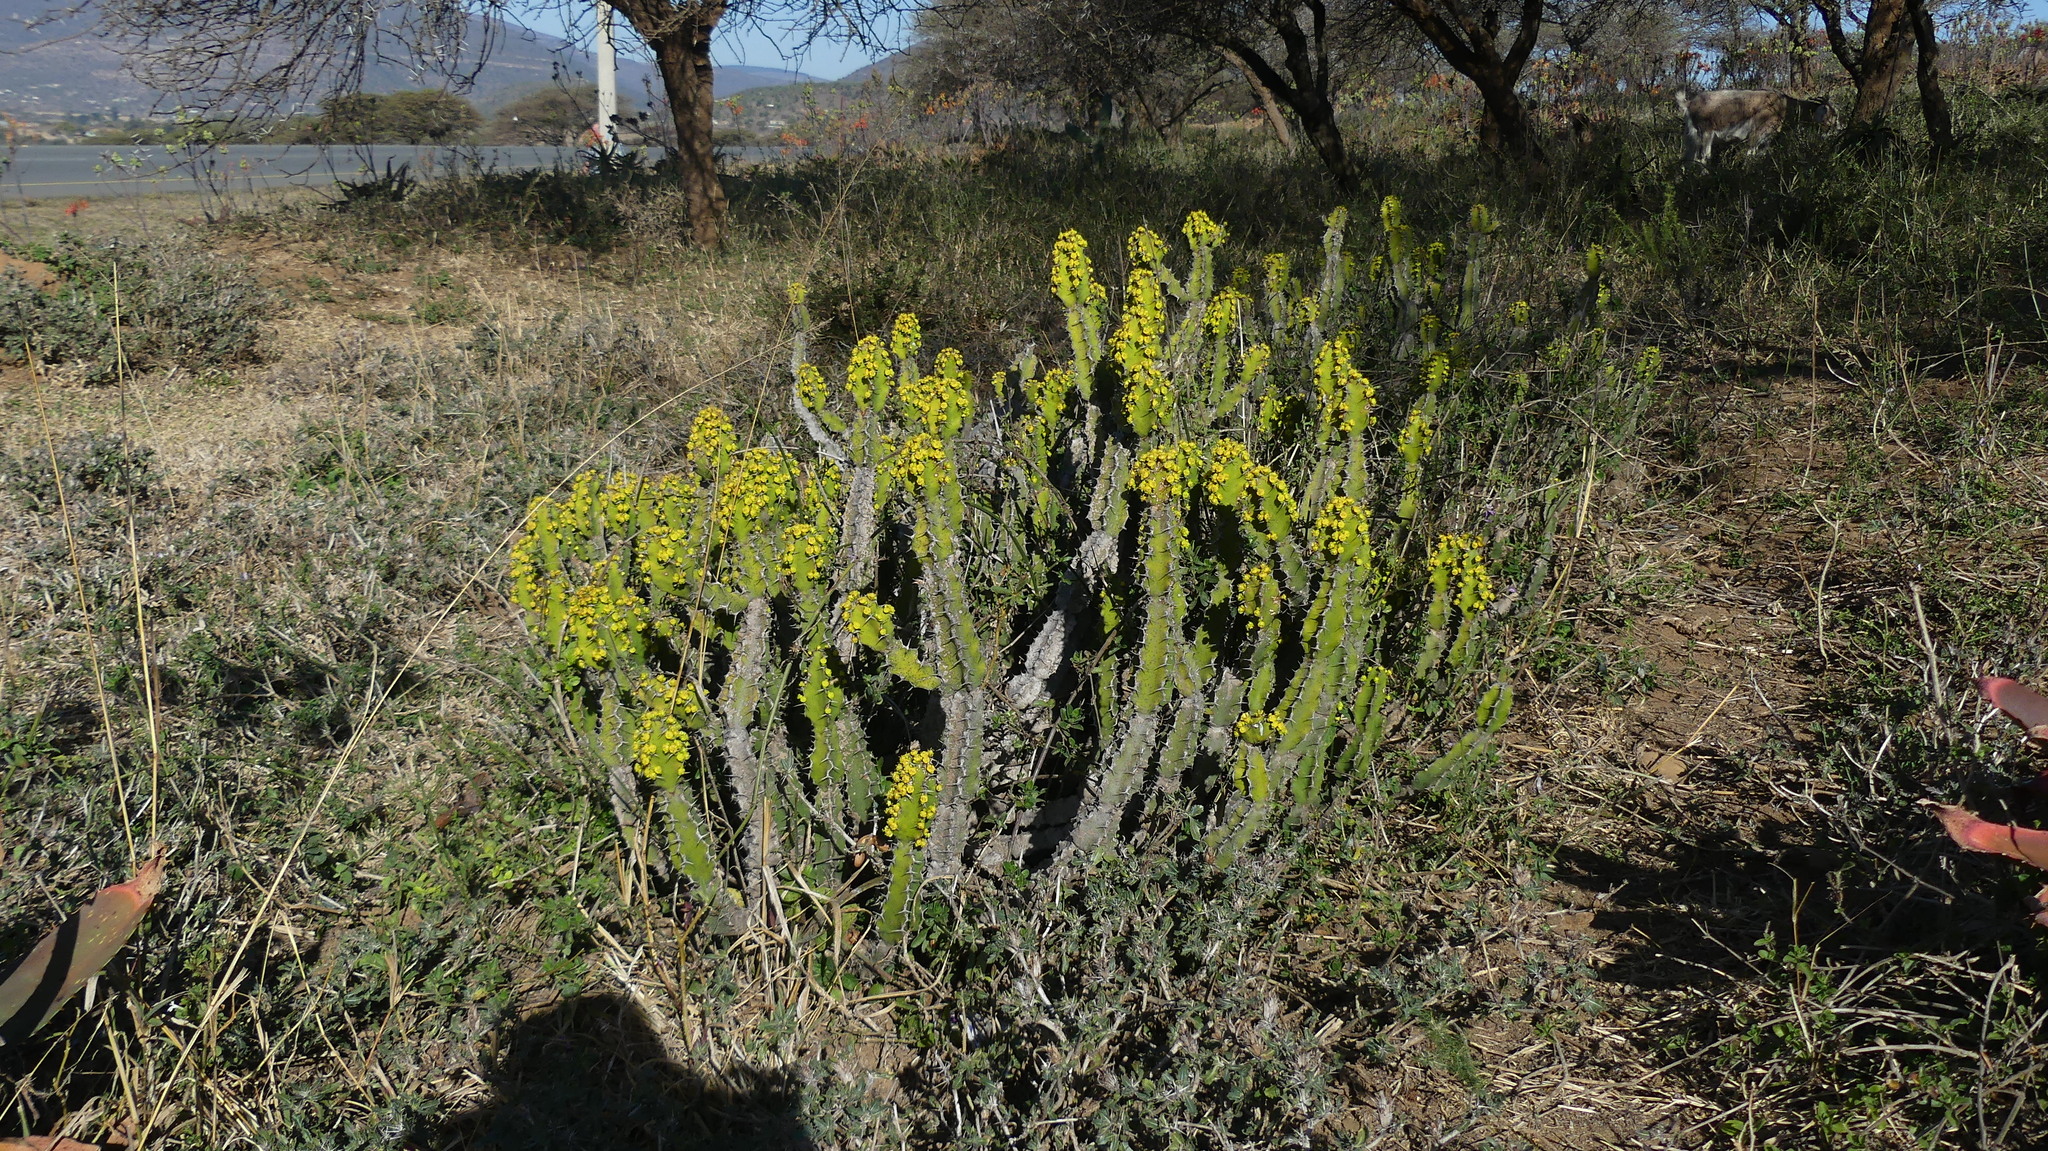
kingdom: Plantae
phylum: Tracheophyta
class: Magnoliopsida
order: Malpighiales
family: Euphorbiaceae
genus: Euphorbia
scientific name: Euphorbia pseudocactus
